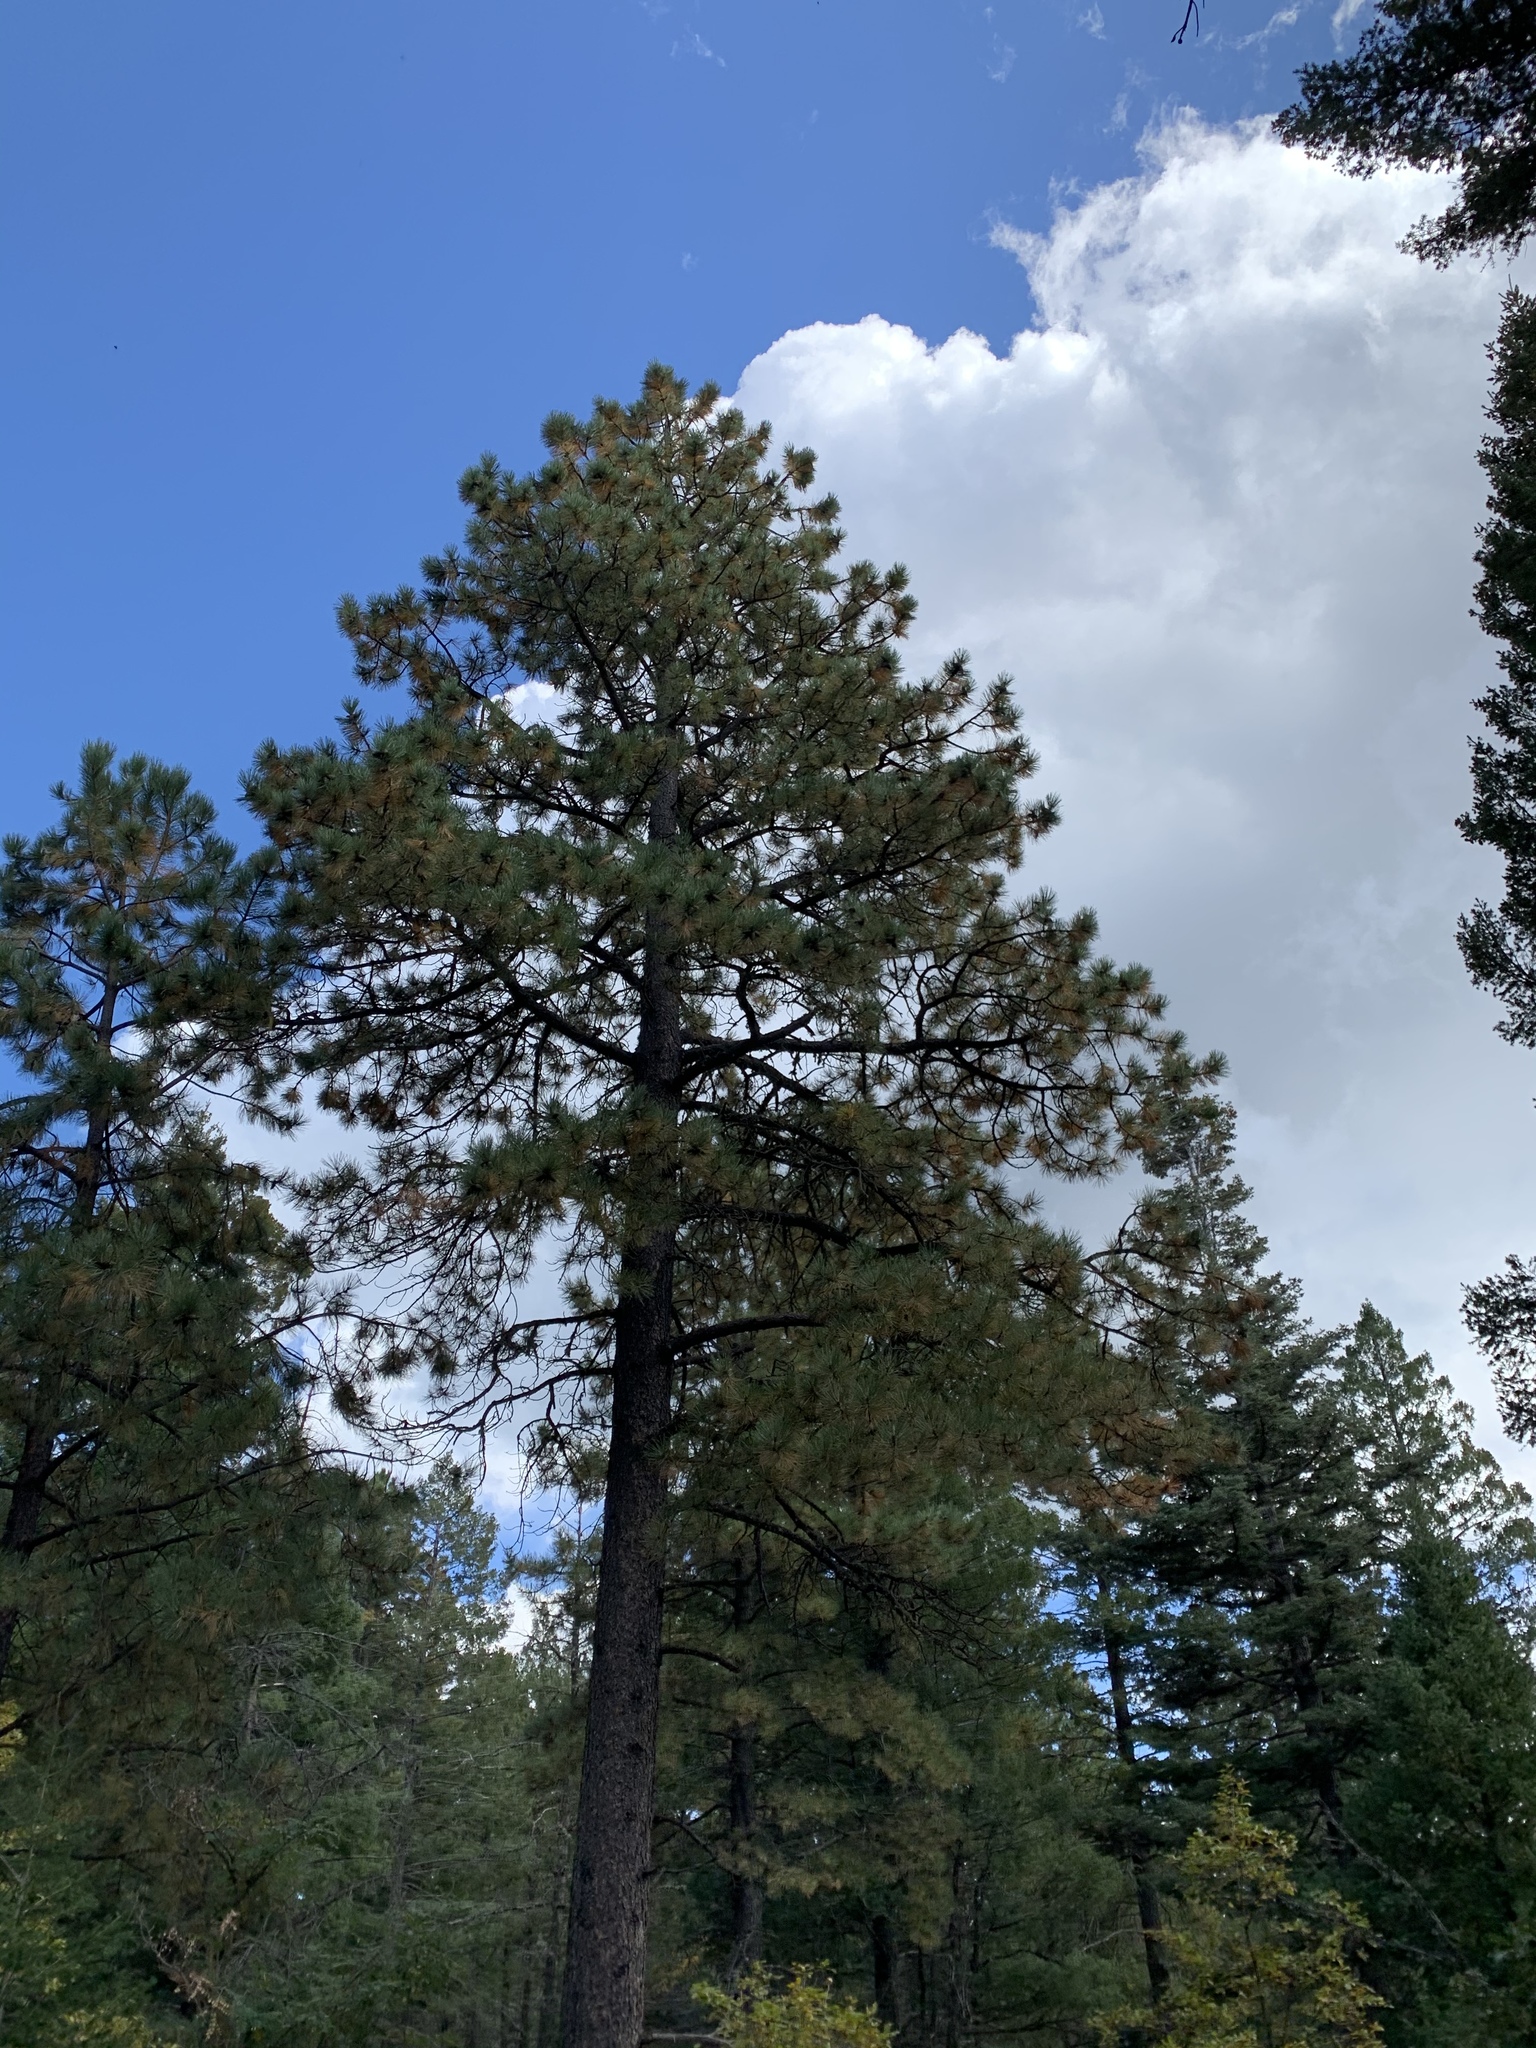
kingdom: Plantae
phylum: Tracheophyta
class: Pinopsida
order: Pinales
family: Pinaceae
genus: Pinus
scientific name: Pinus ponderosa
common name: Western yellow-pine
